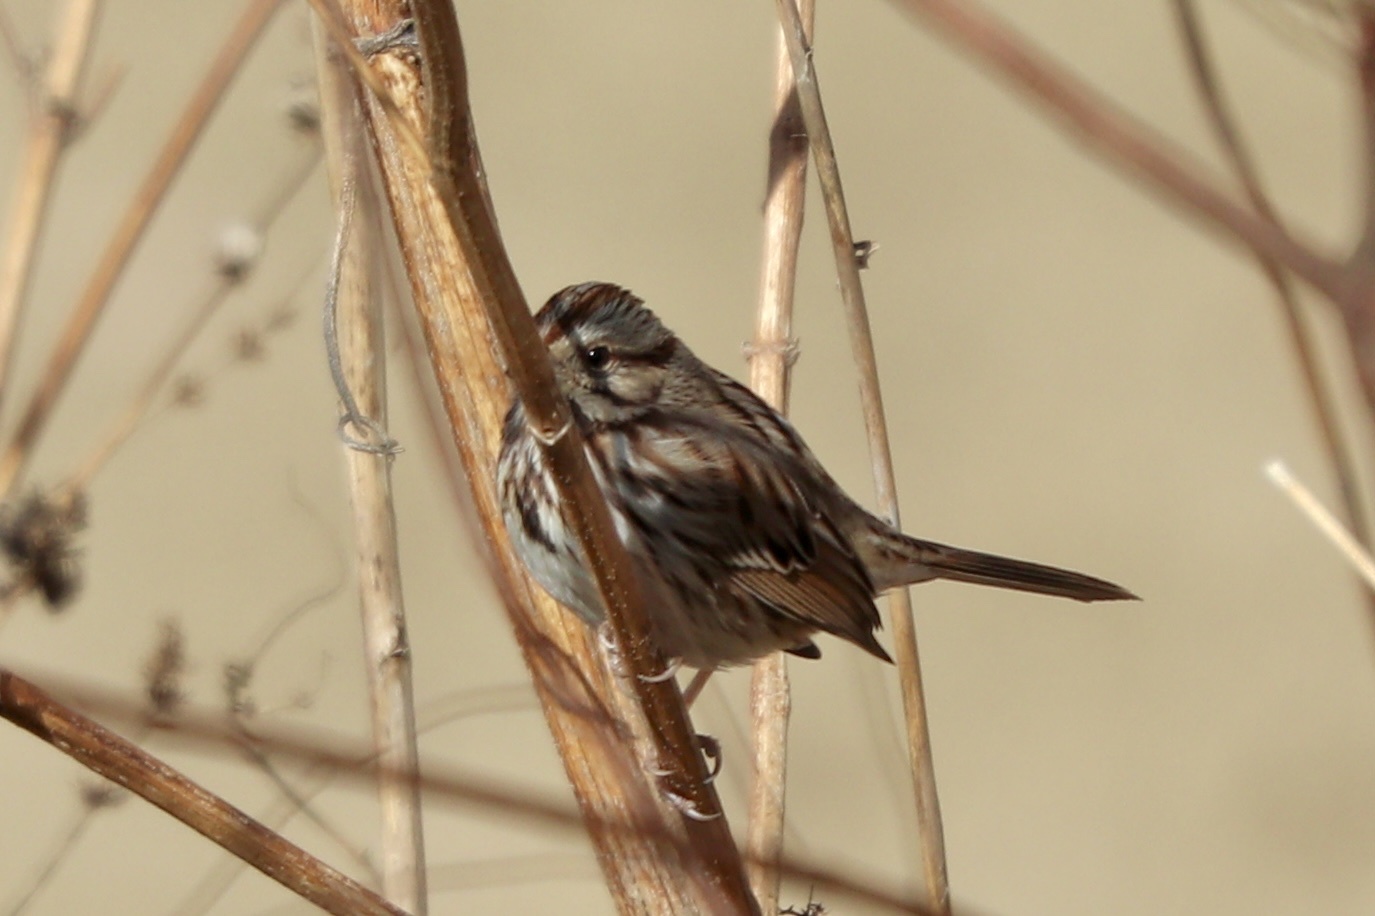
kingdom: Animalia
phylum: Chordata
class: Aves
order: Passeriformes
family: Passerellidae
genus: Melospiza
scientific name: Melospiza melodia
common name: Song sparrow
